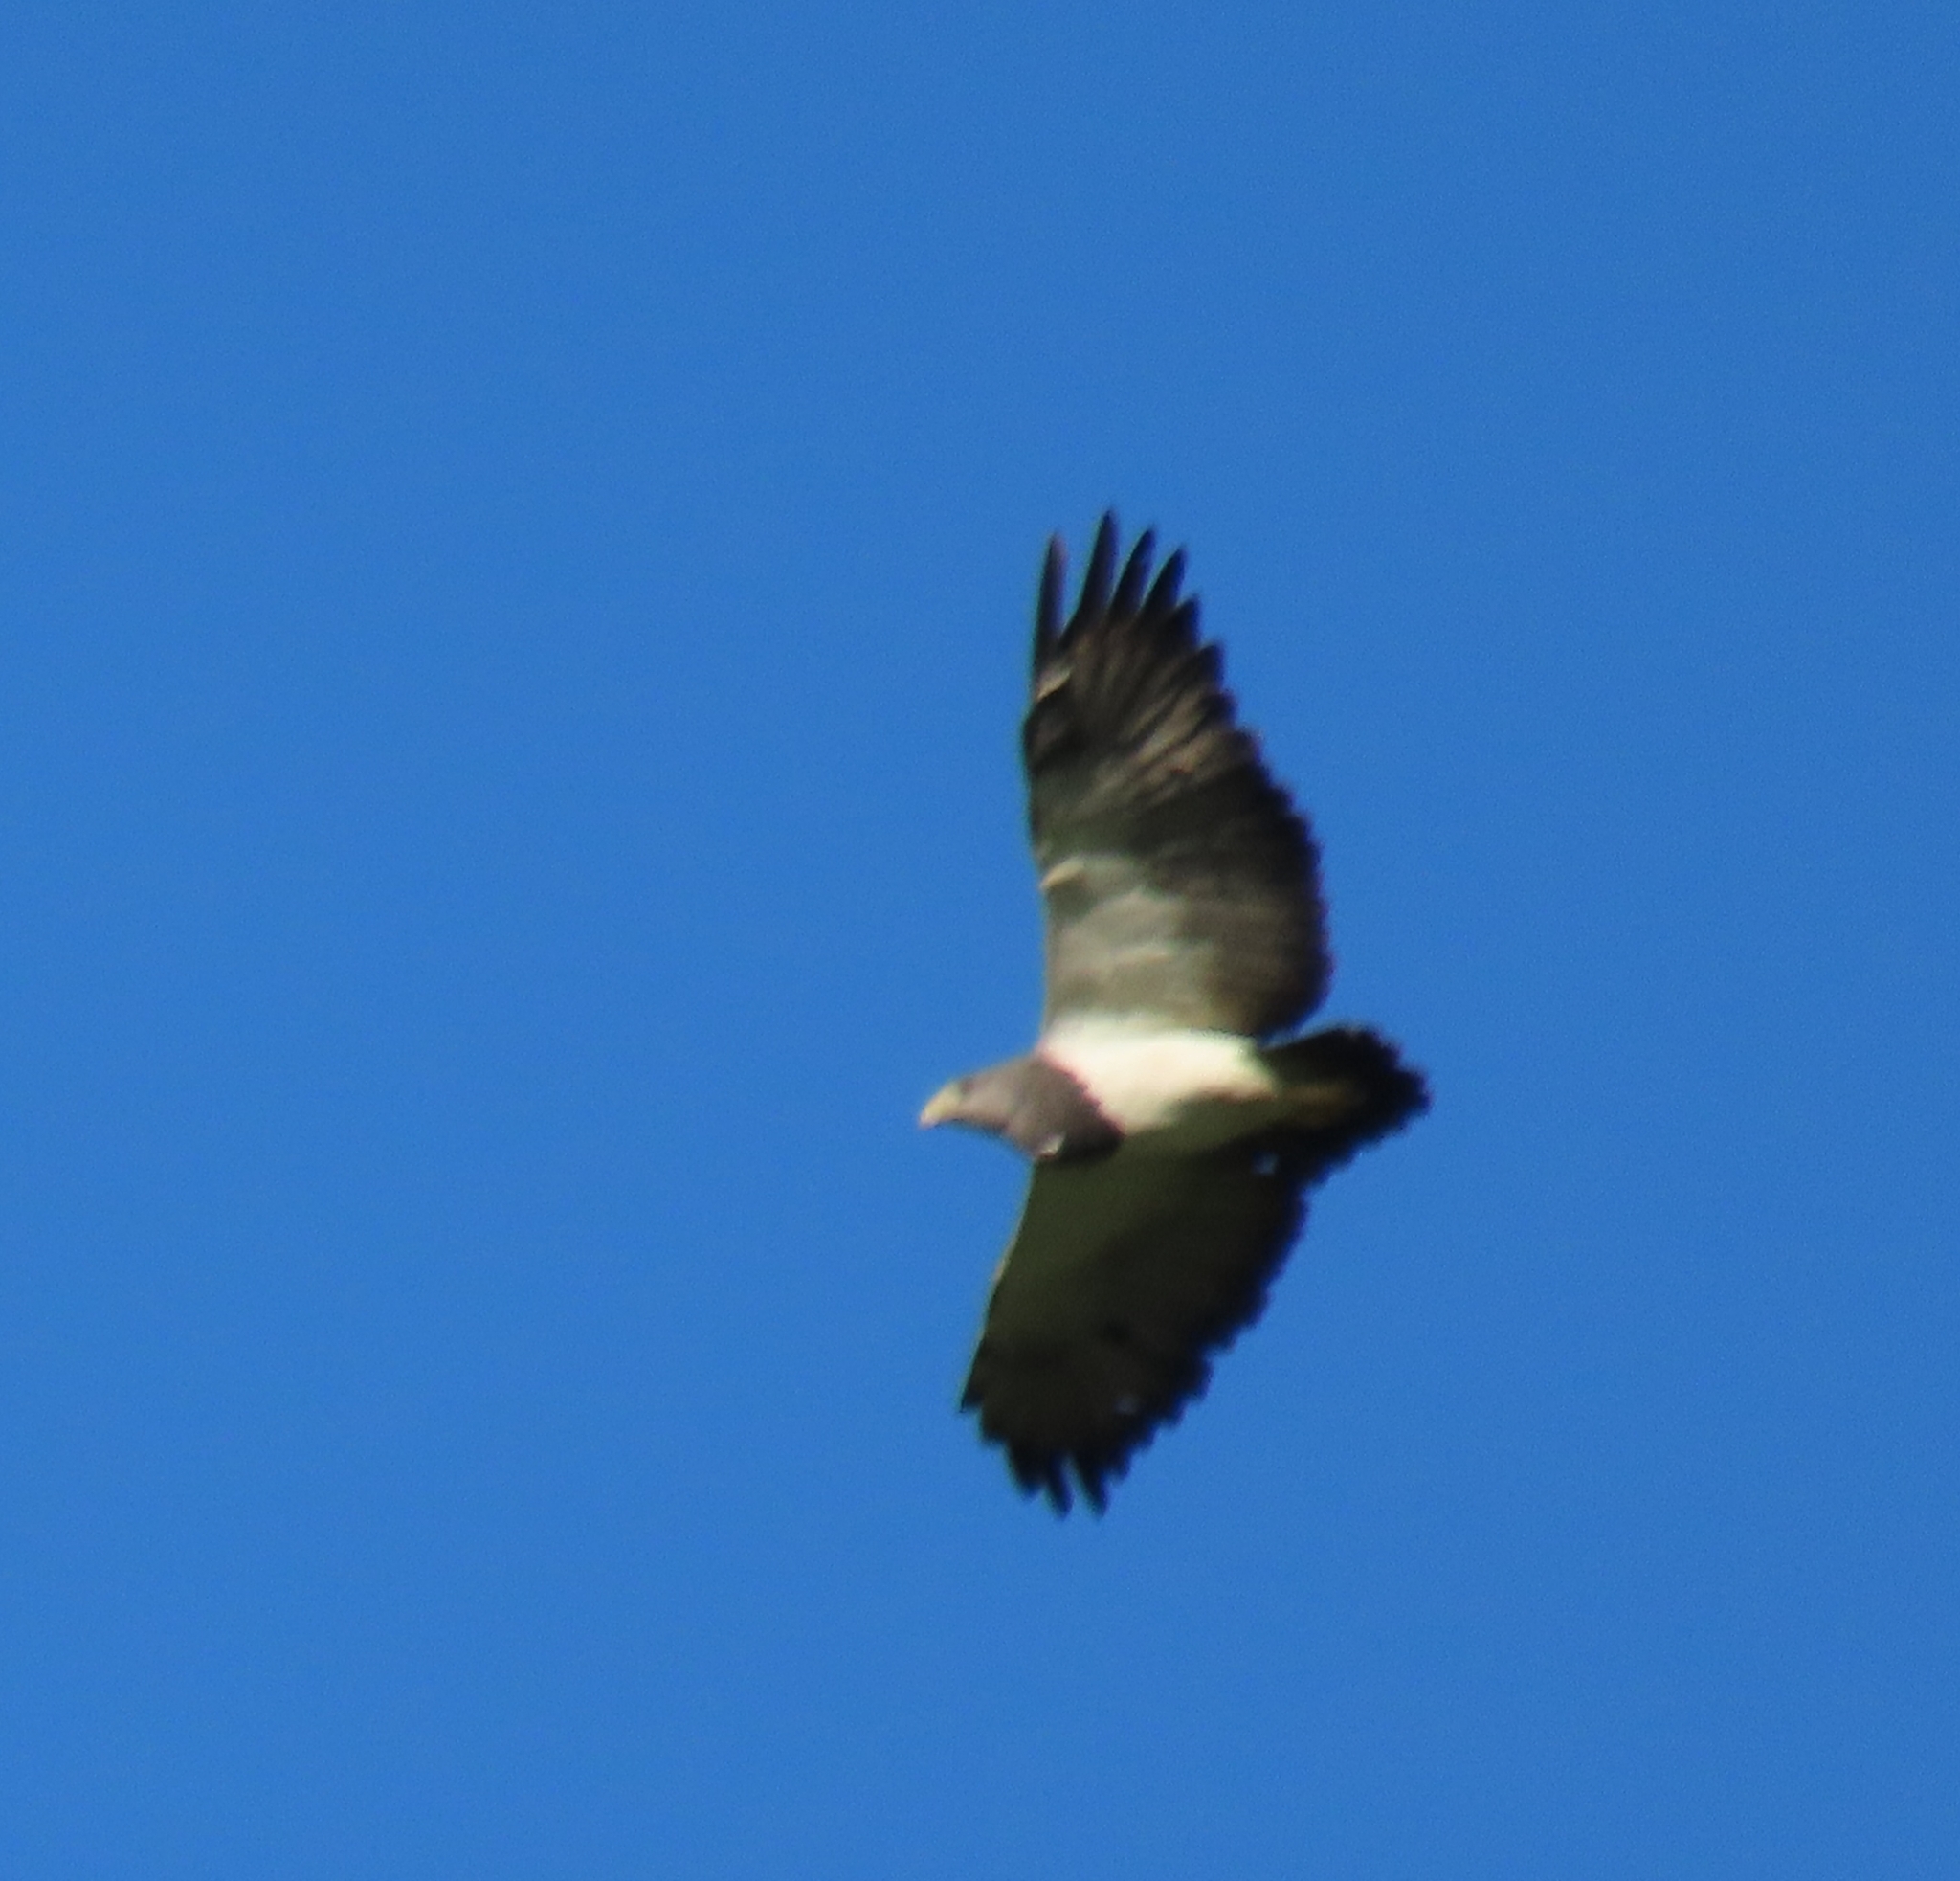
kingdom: Animalia
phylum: Chordata
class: Aves
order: Accipitriformes
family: Accipitridae
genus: Geranoaetus
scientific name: Geranoaetus melanoleucus
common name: Black-chested buzzard-eagle
